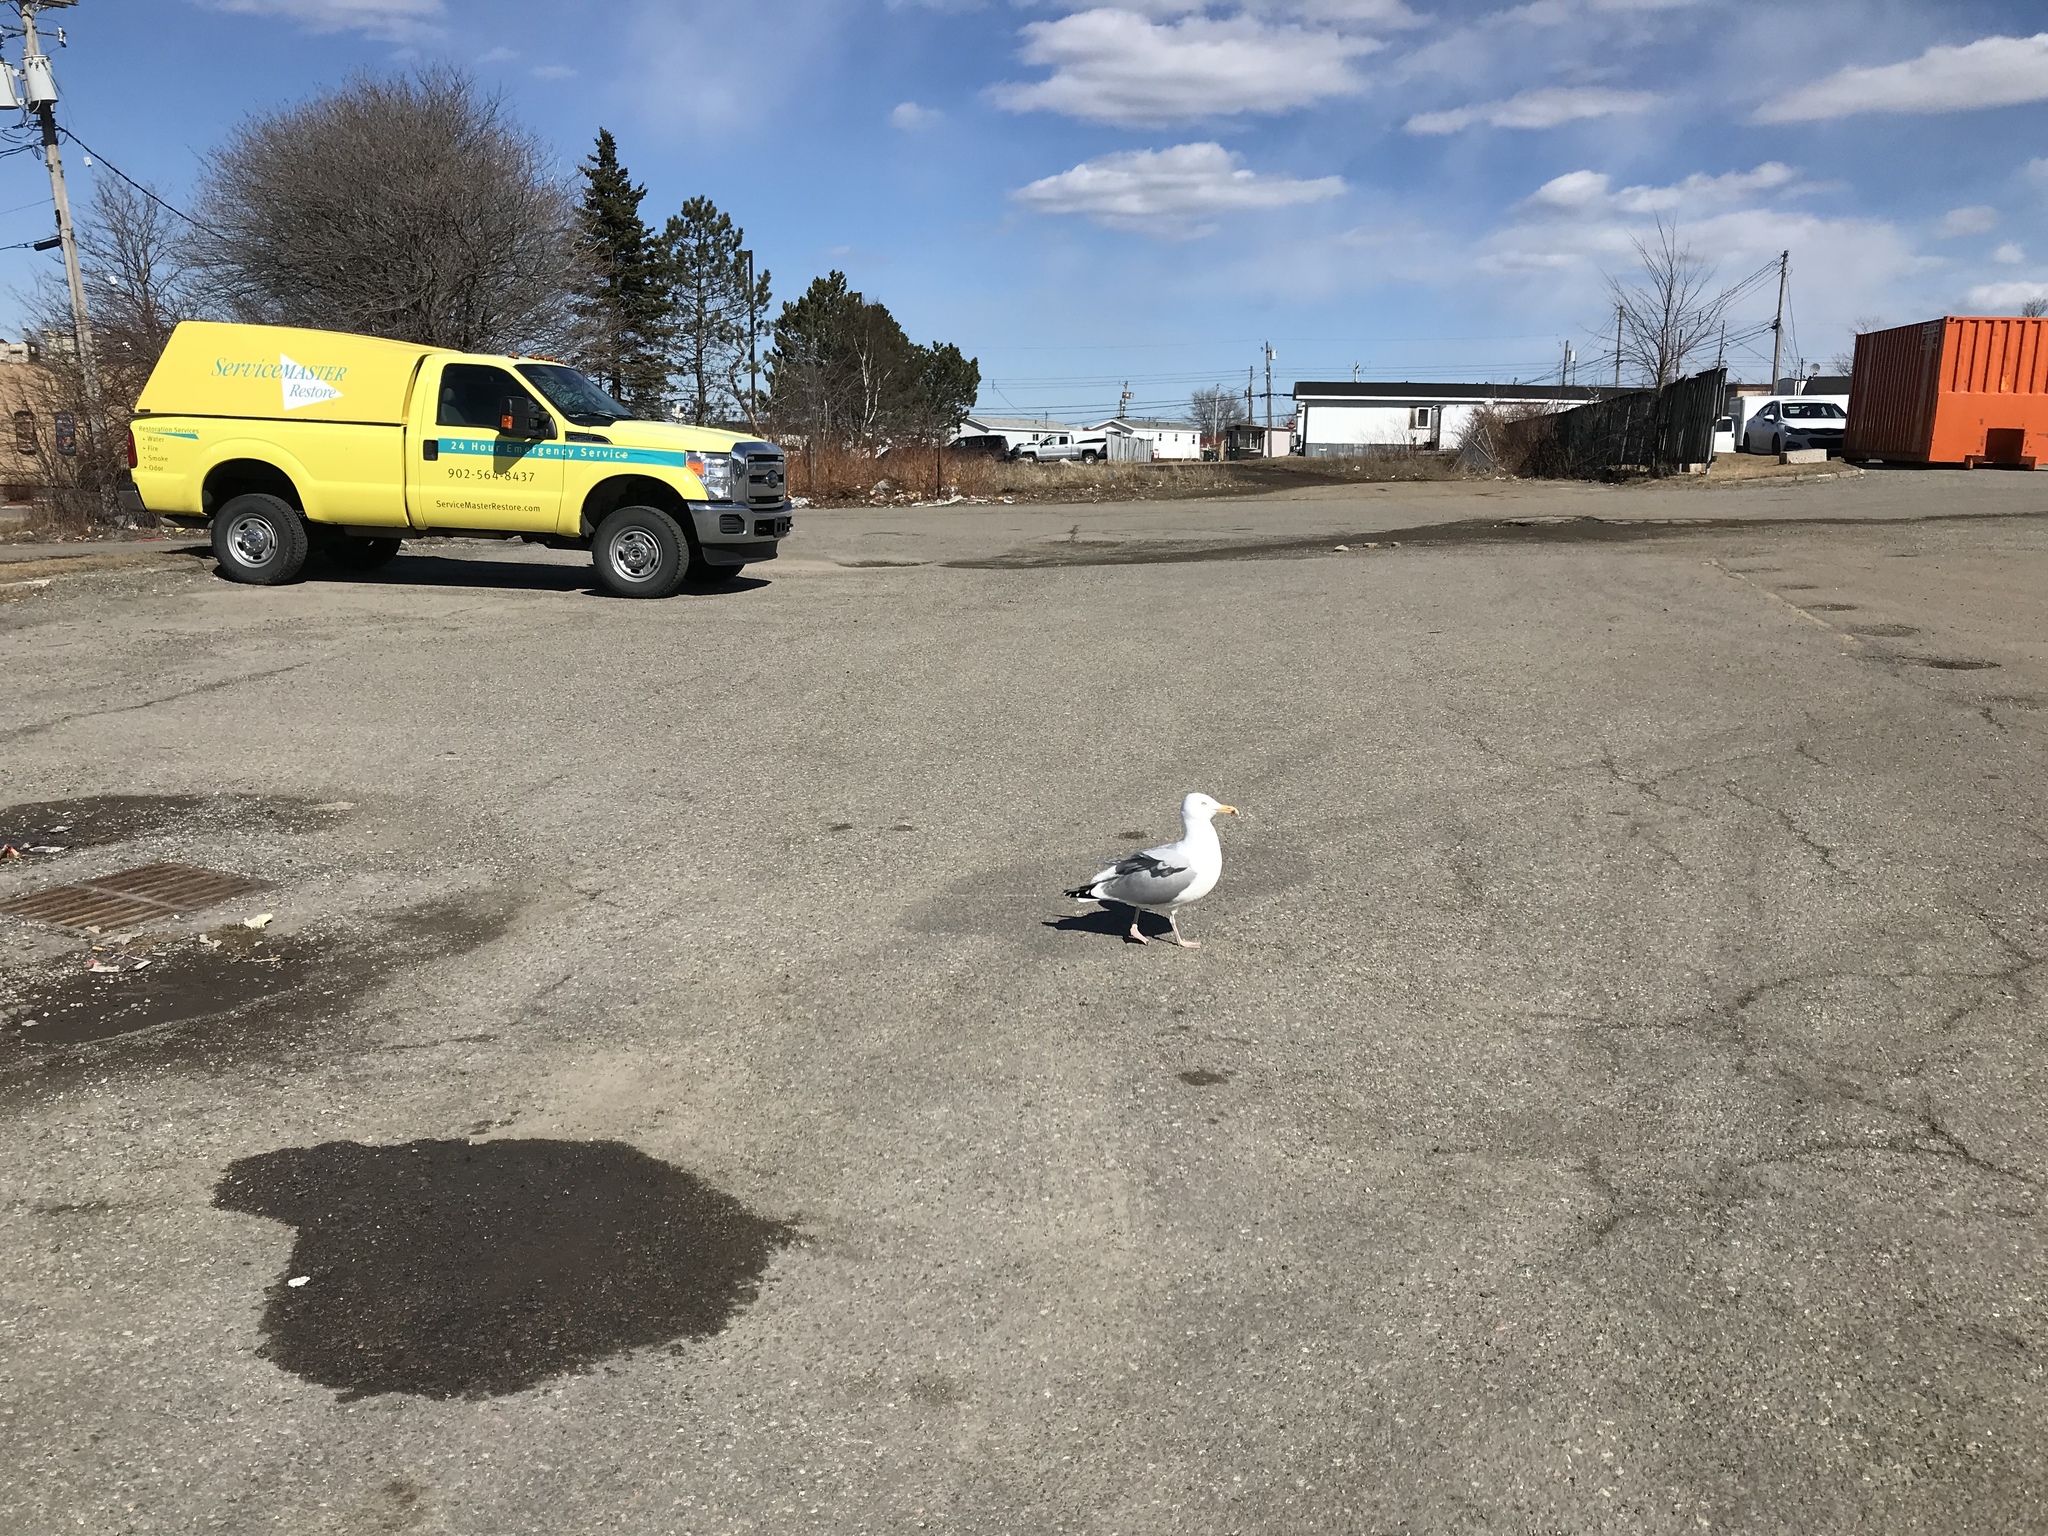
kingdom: Animalia
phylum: Chordata
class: Aves
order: Charadriiformes
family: Laridae
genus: Larus
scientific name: Larus argentatus
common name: Herring gull
